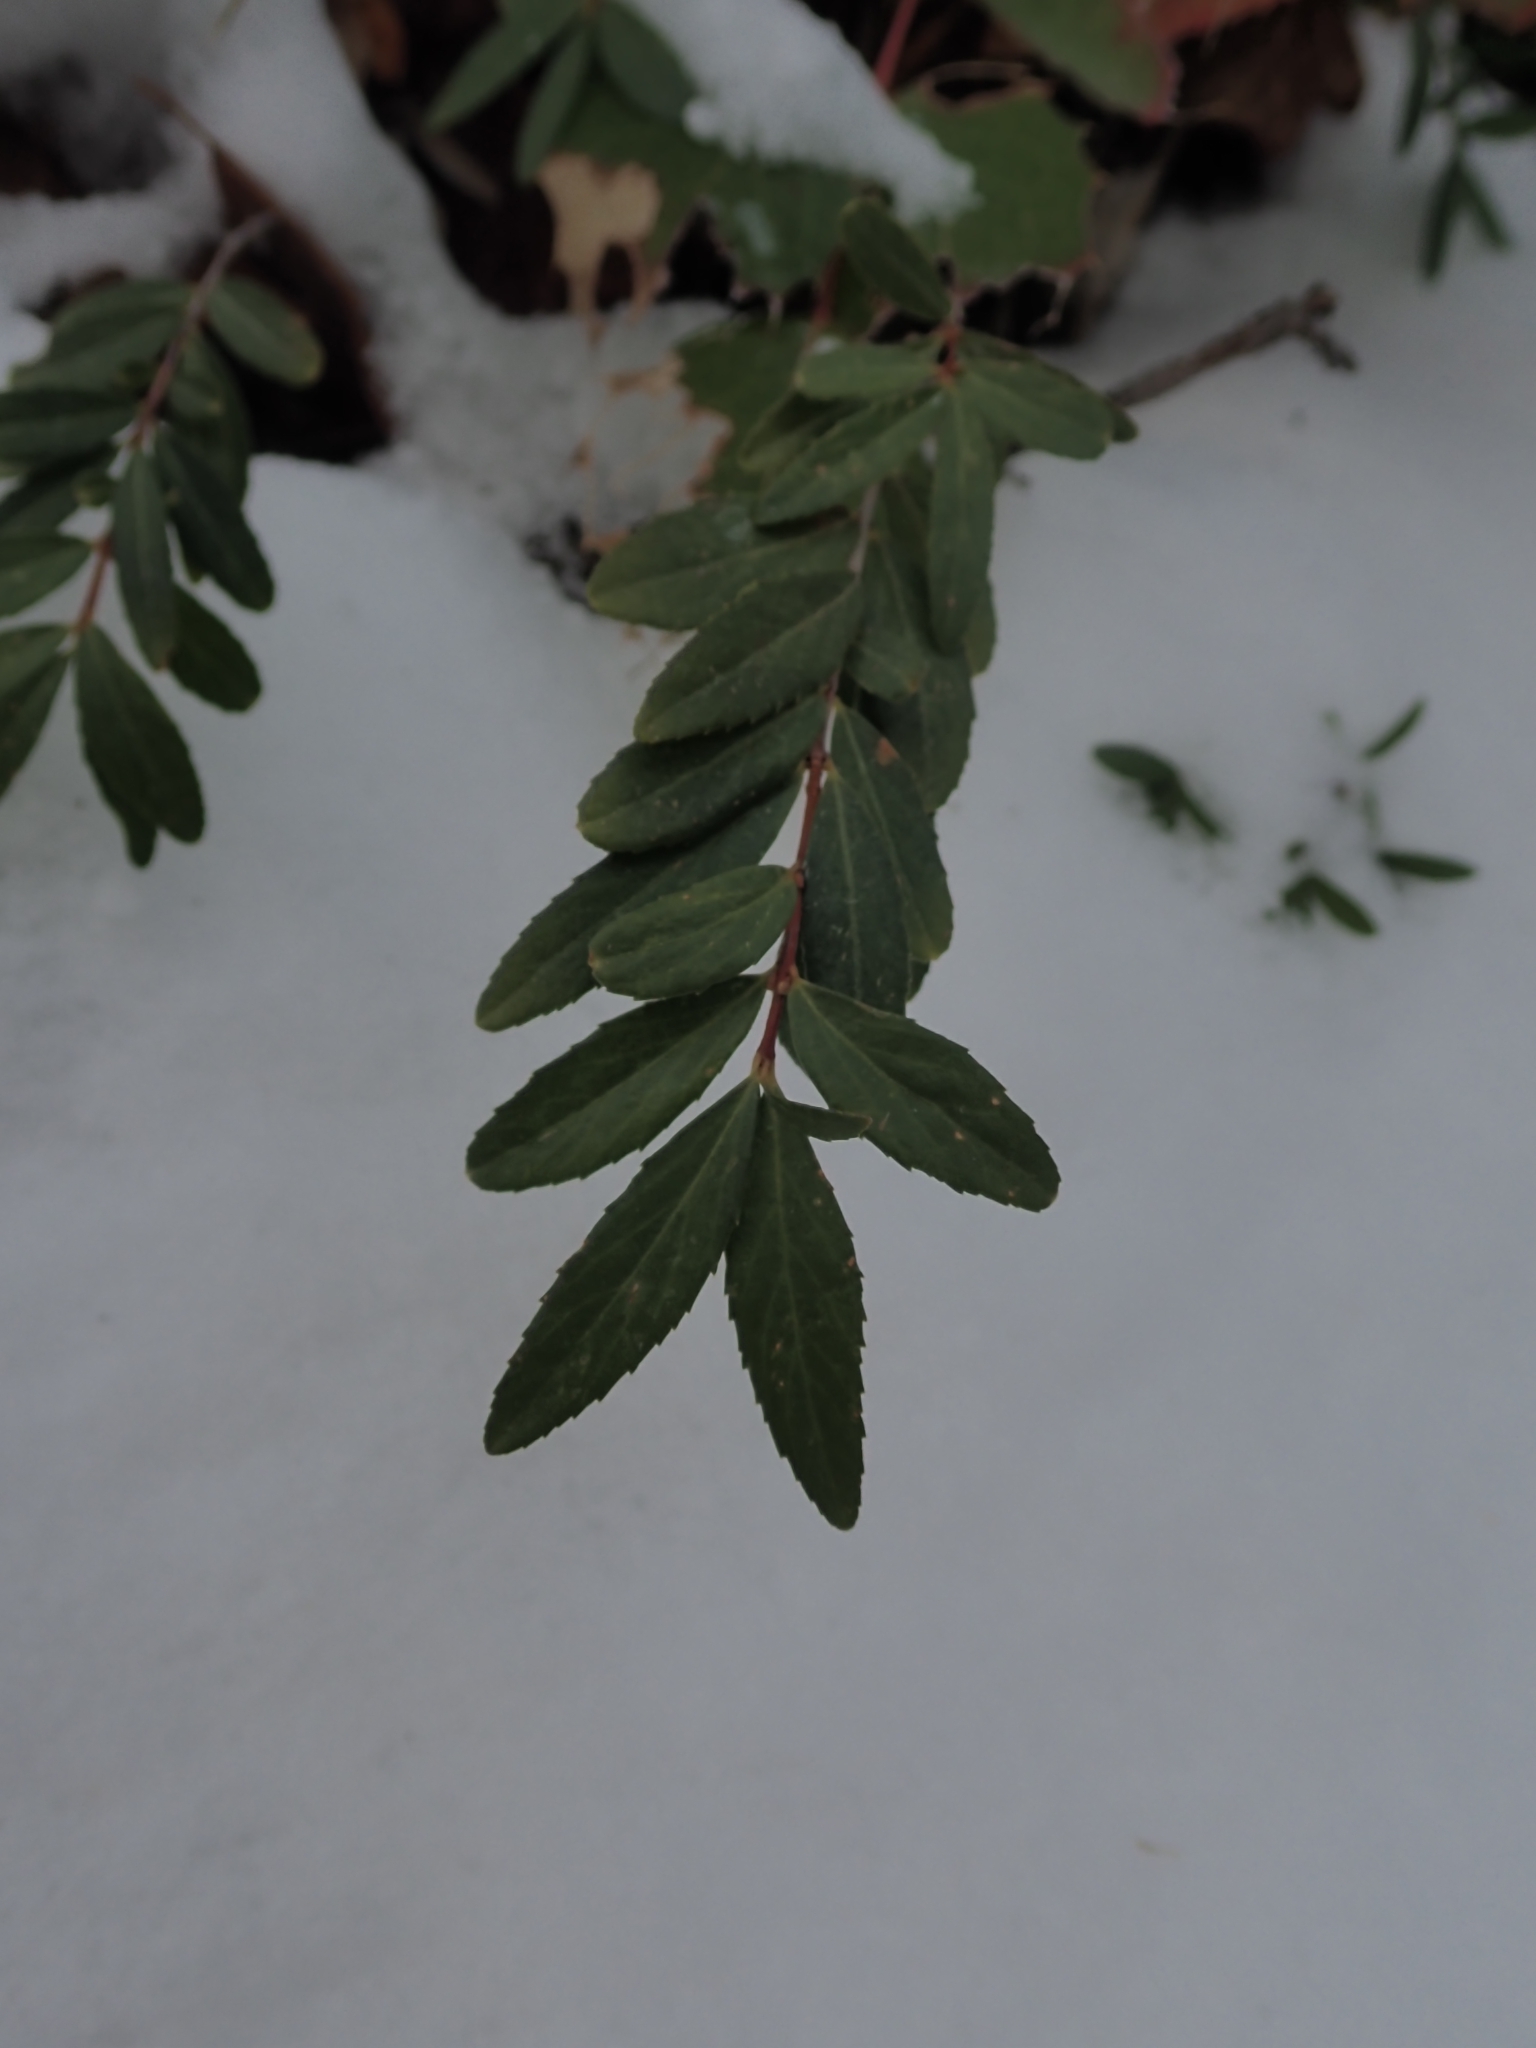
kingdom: Plantae
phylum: Tracheophyta
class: Magnoliopsida
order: Celastrales
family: Celastraceae
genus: Paxistima
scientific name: Paxistima myrsinites
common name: Mountain-lover
